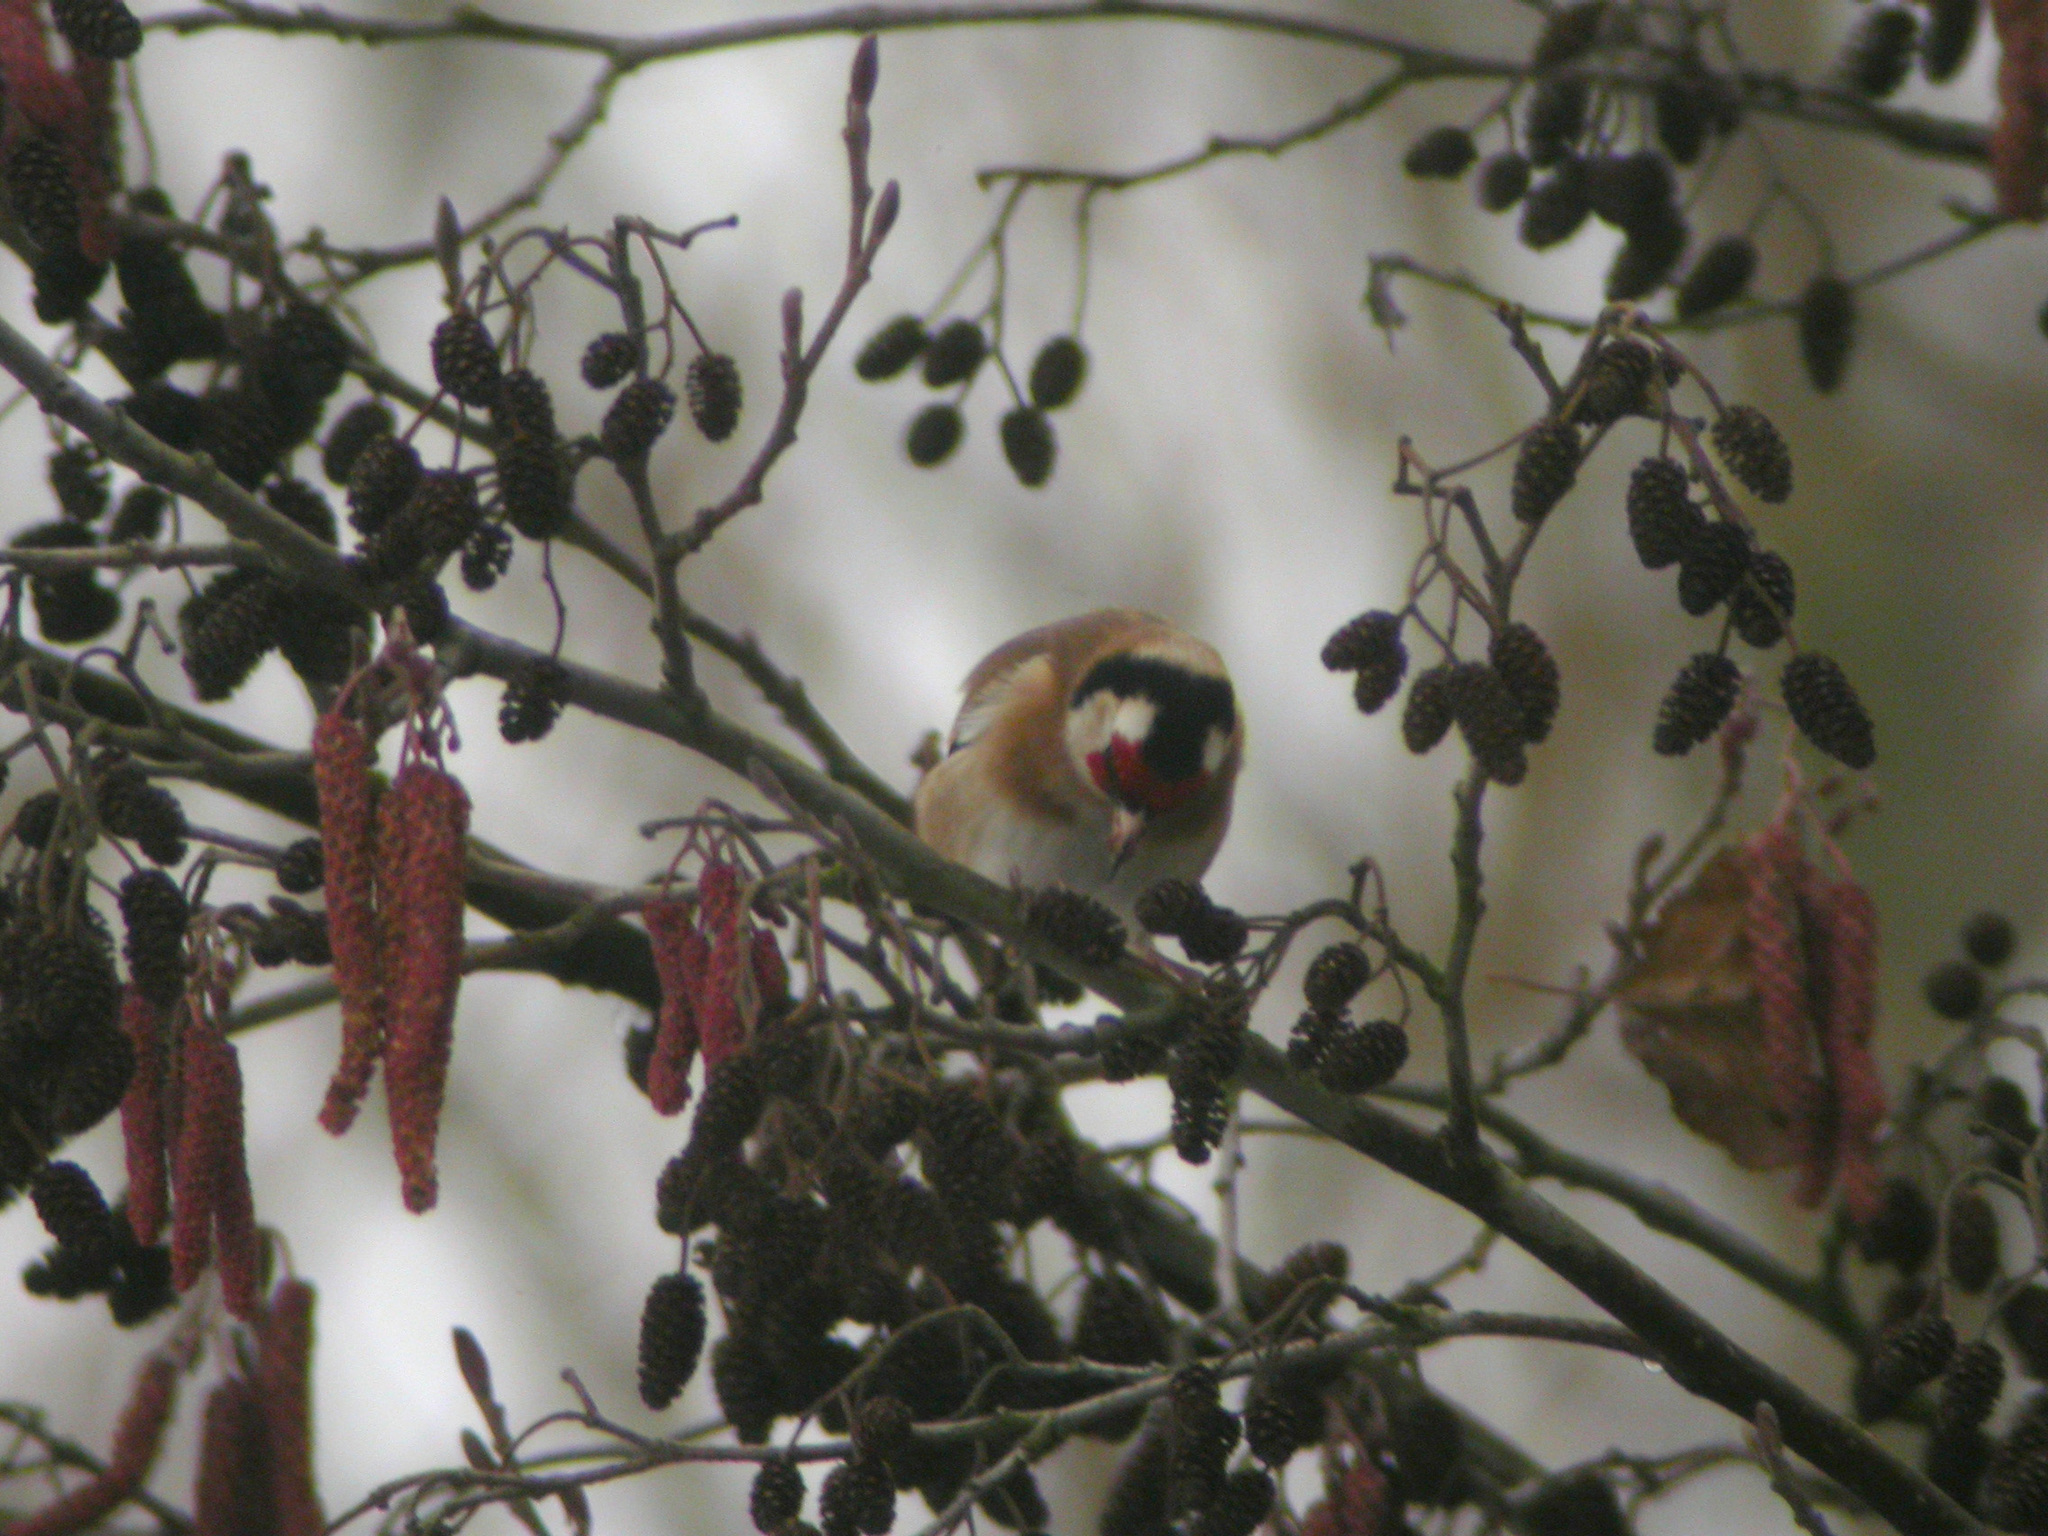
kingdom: Animalia
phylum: Chordata
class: Aves
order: Passeriformes
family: Fringillidae
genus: Carduelis
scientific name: Carduelis carduelis
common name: European goldfinch
